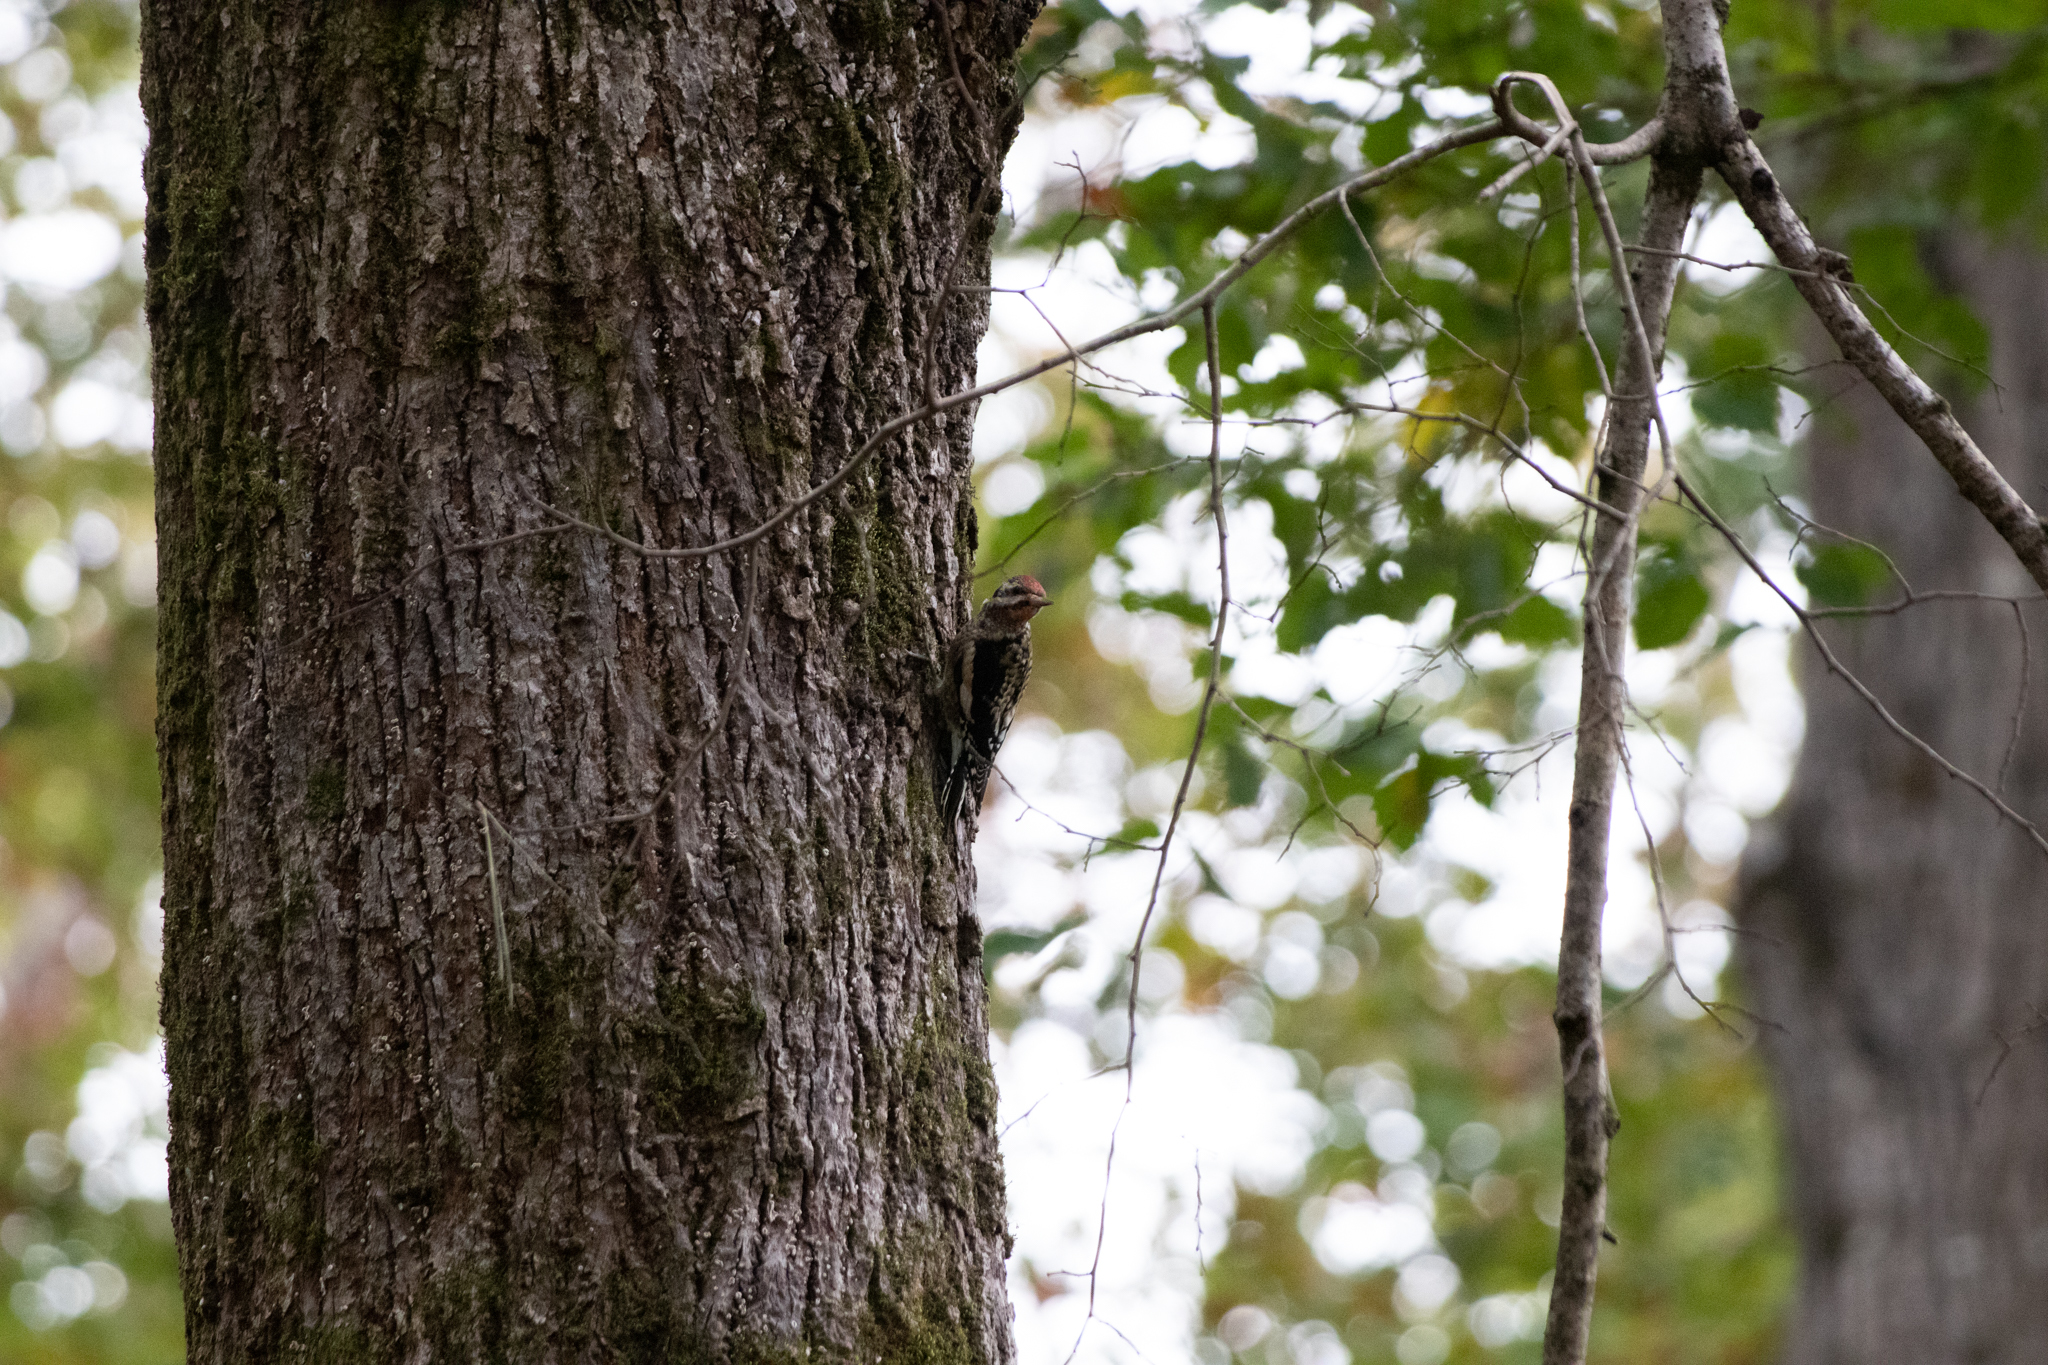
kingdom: Animalia
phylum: Chordata
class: Aves
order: Piciformes
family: Picidae
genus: Sphyrapicus
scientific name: Sphyrapicus varius
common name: Yellow-bellied sapsucker
